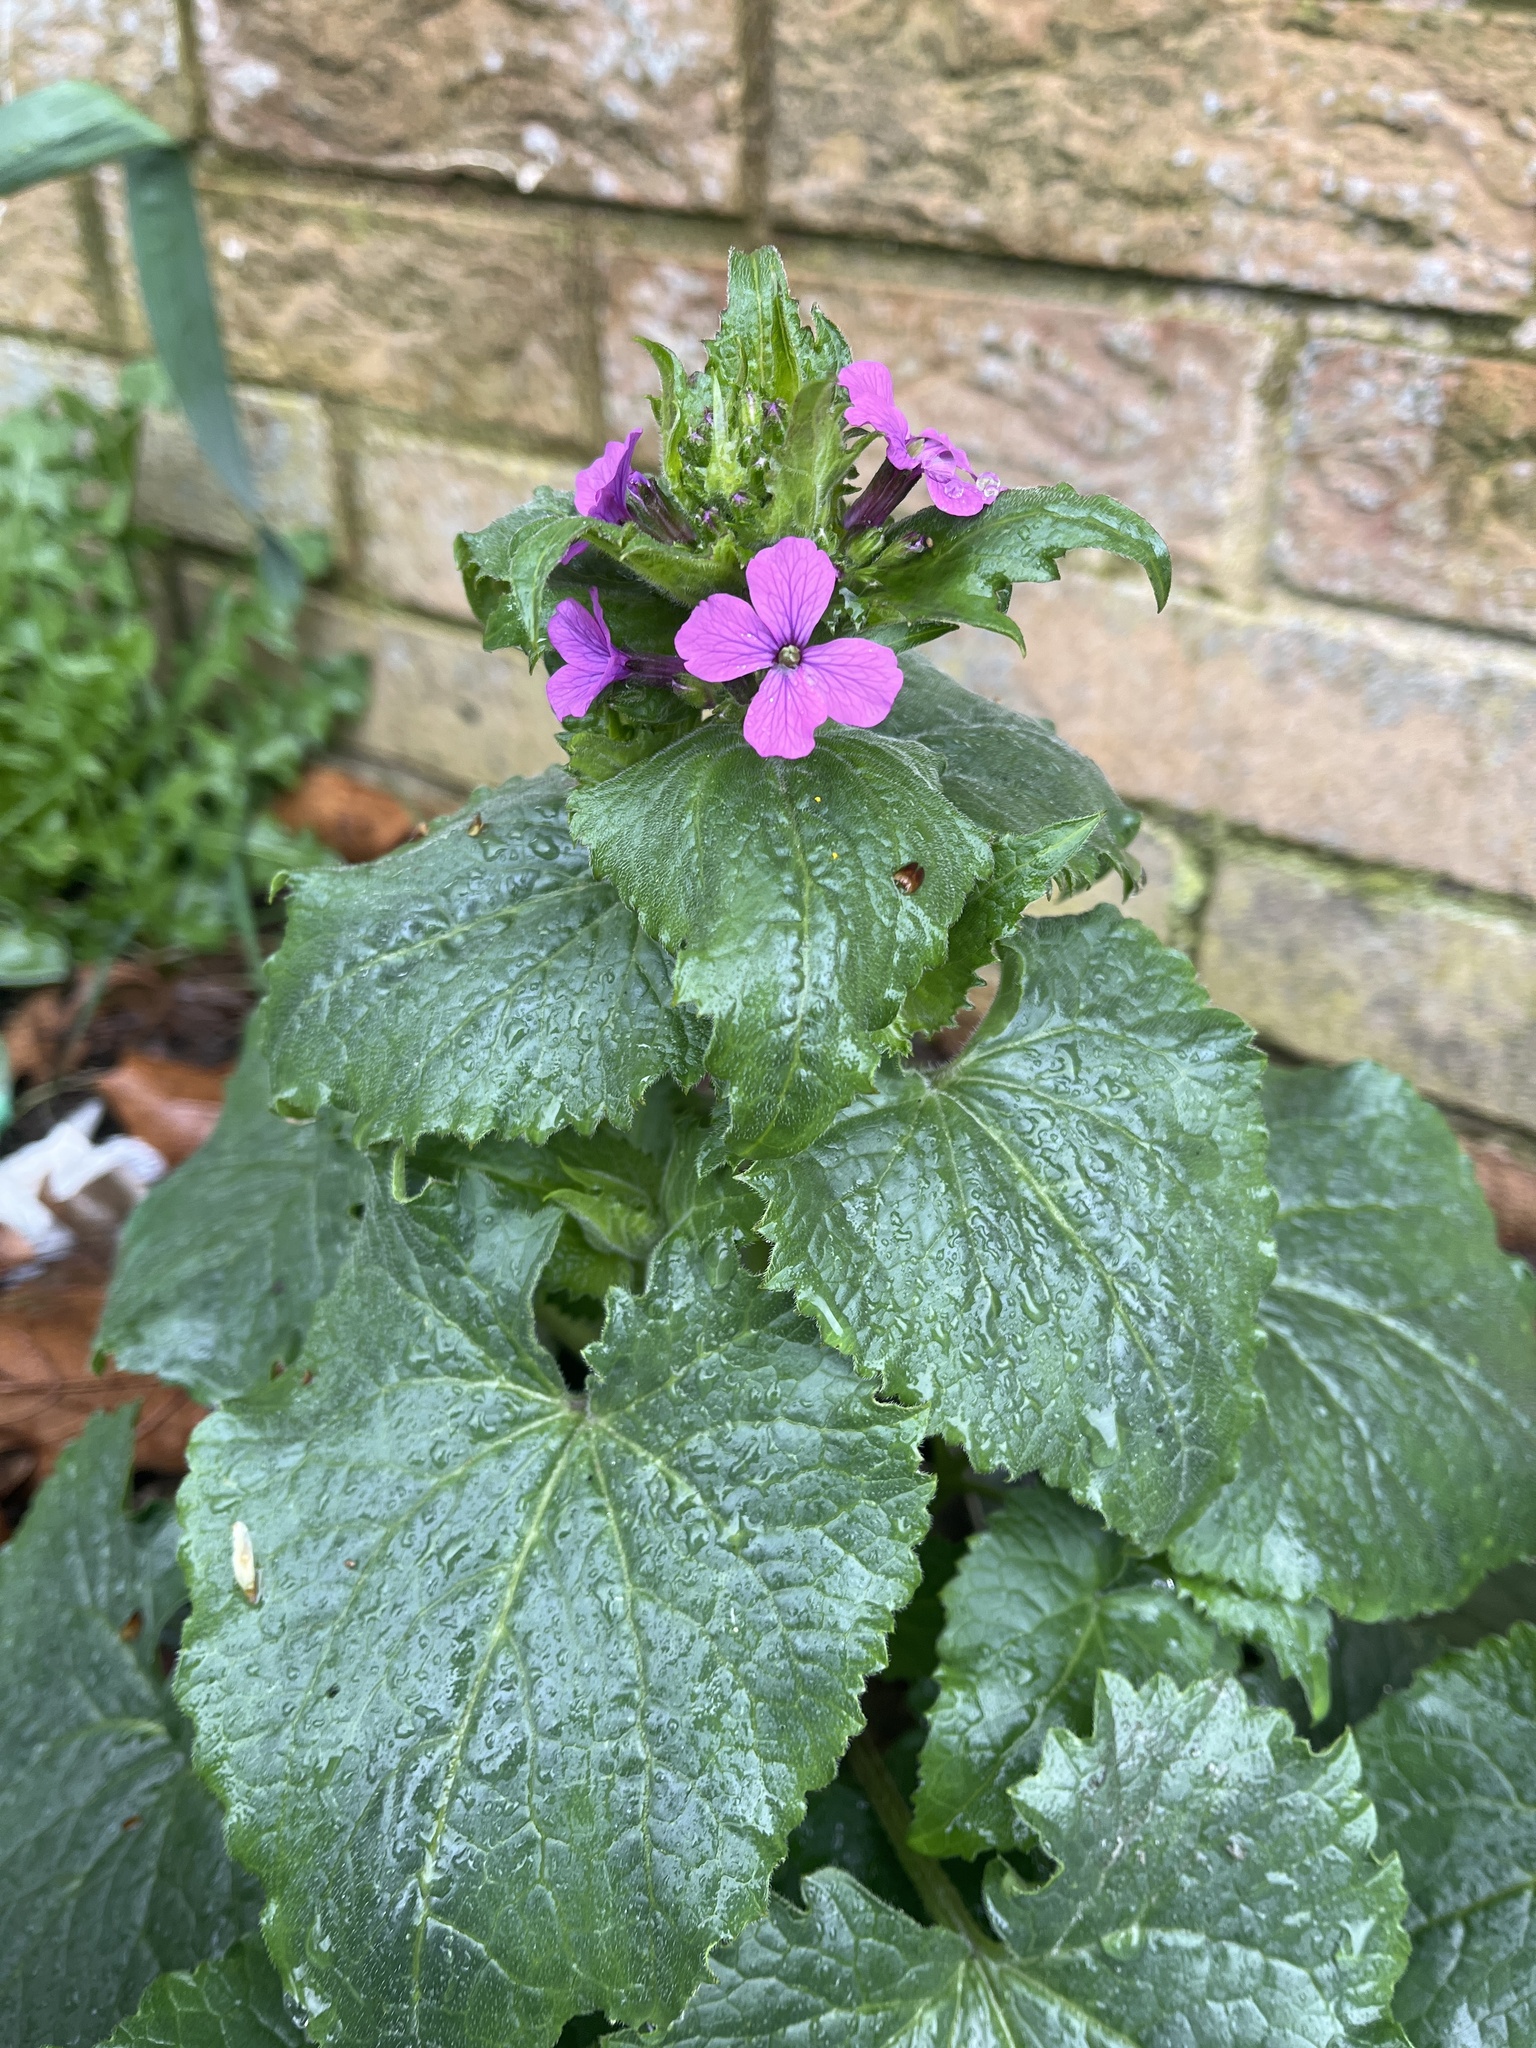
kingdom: Plantae
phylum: Tracheophyta
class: Magnoliopsida
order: Brassicales
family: Brassicaceae
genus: Lunaria
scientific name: Lunaria annua
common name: Honesty
